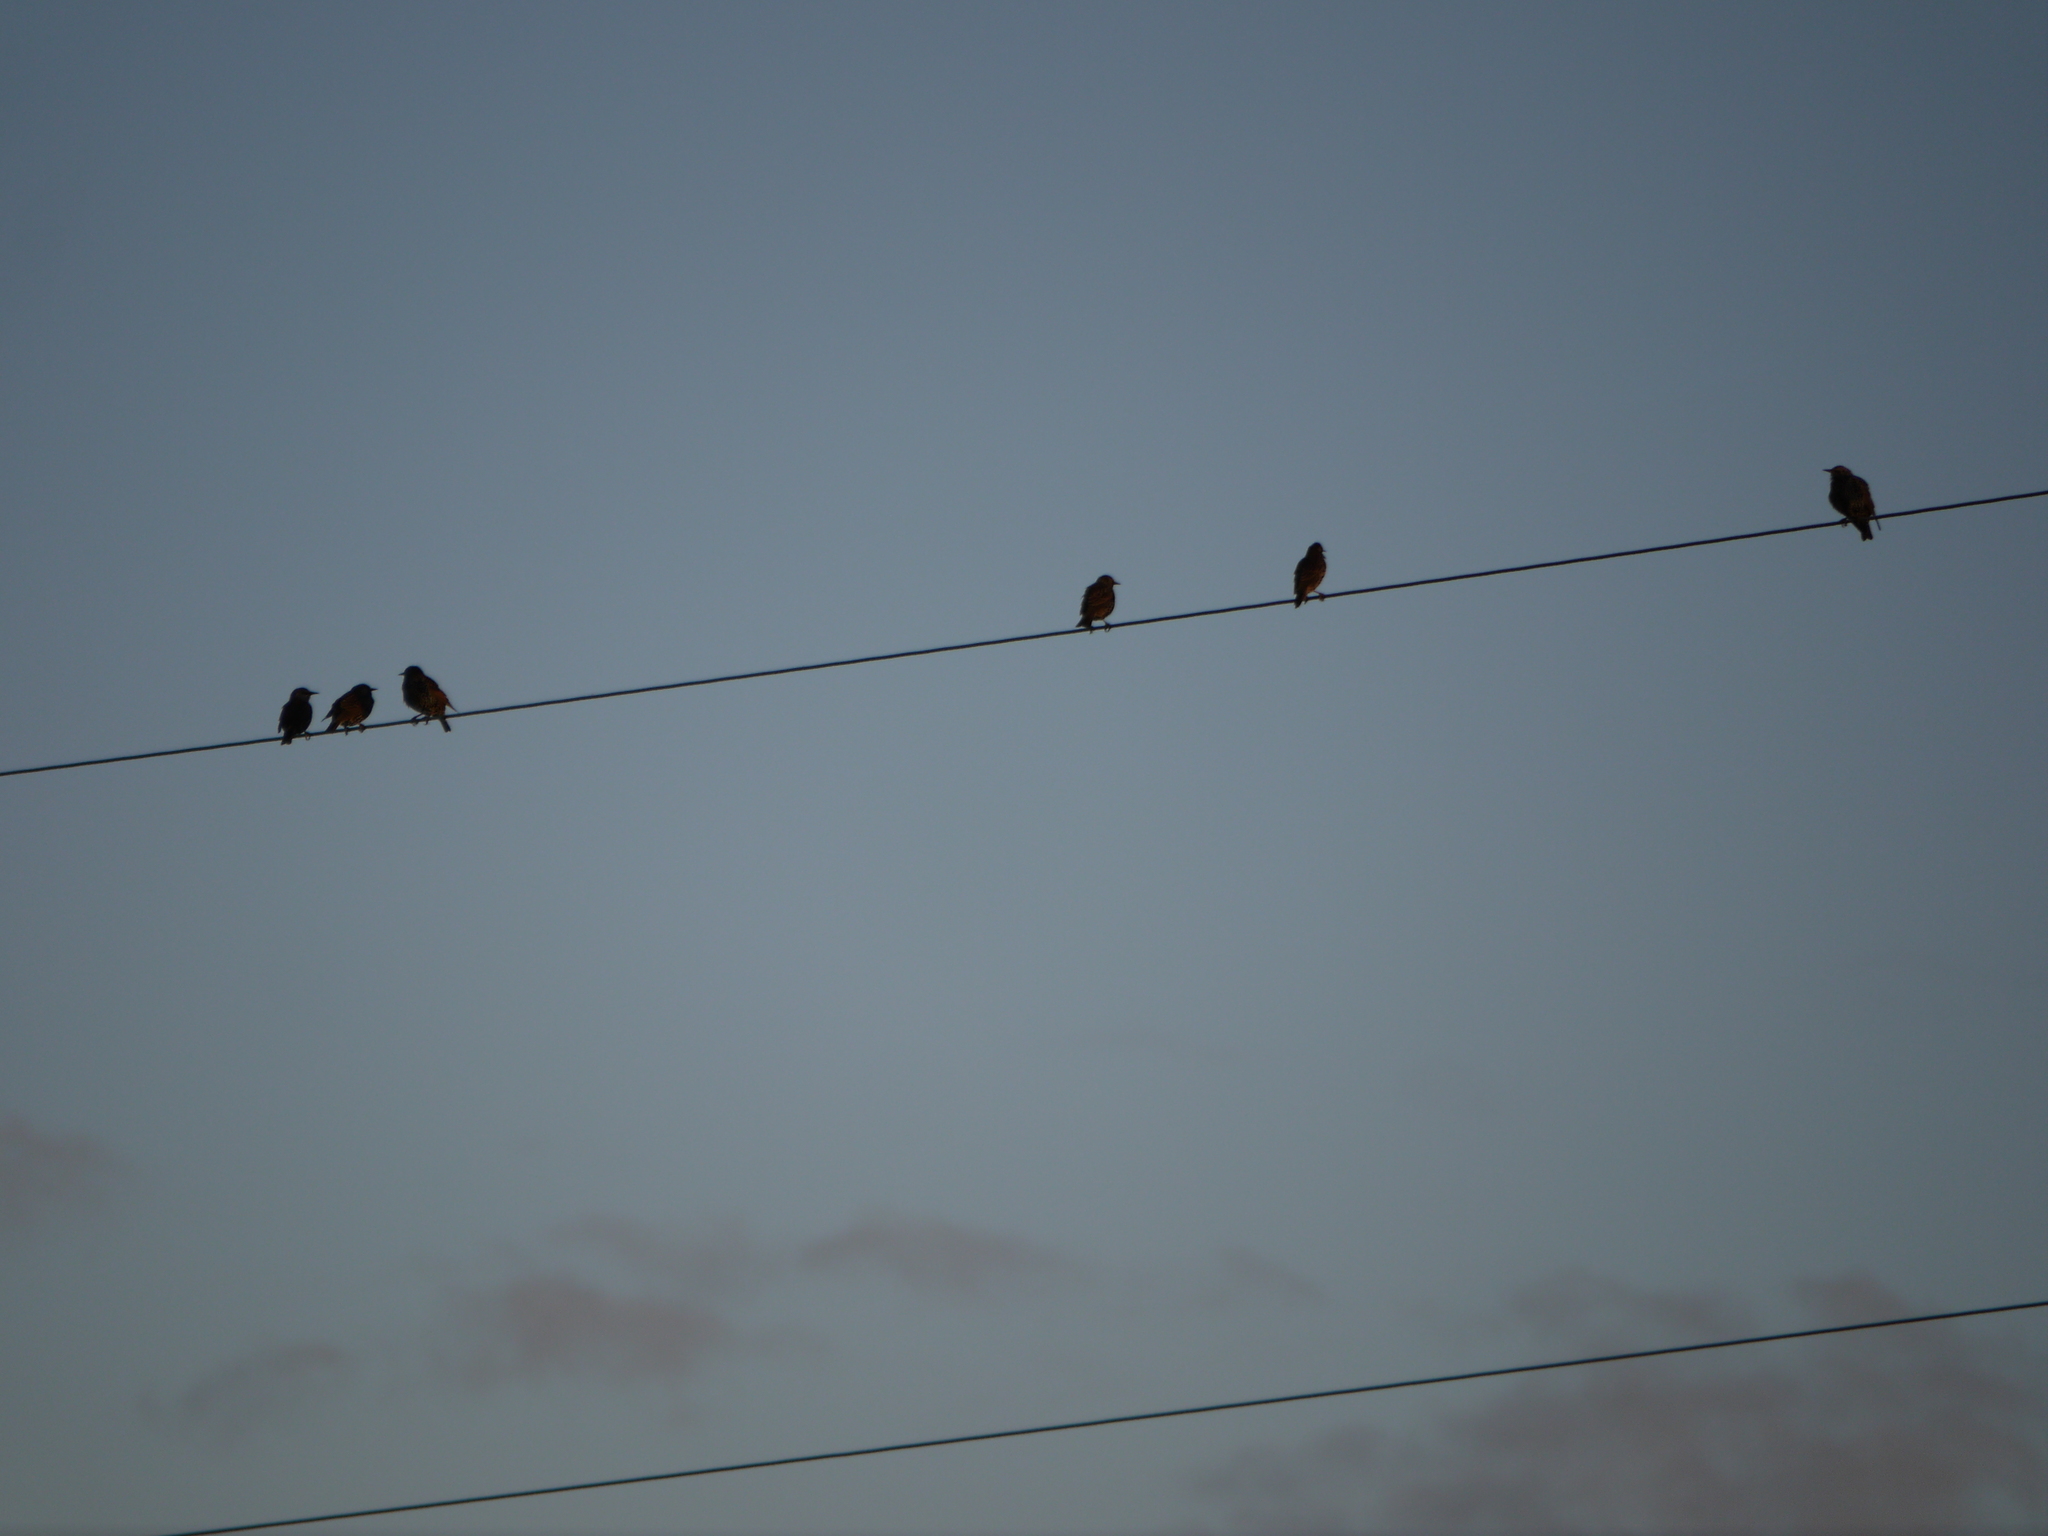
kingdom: Animalia
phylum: Chordata
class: Aves
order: Passeriformes
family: Sturnidae
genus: Sturnus
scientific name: Sturnus vulgaris
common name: Common starling
